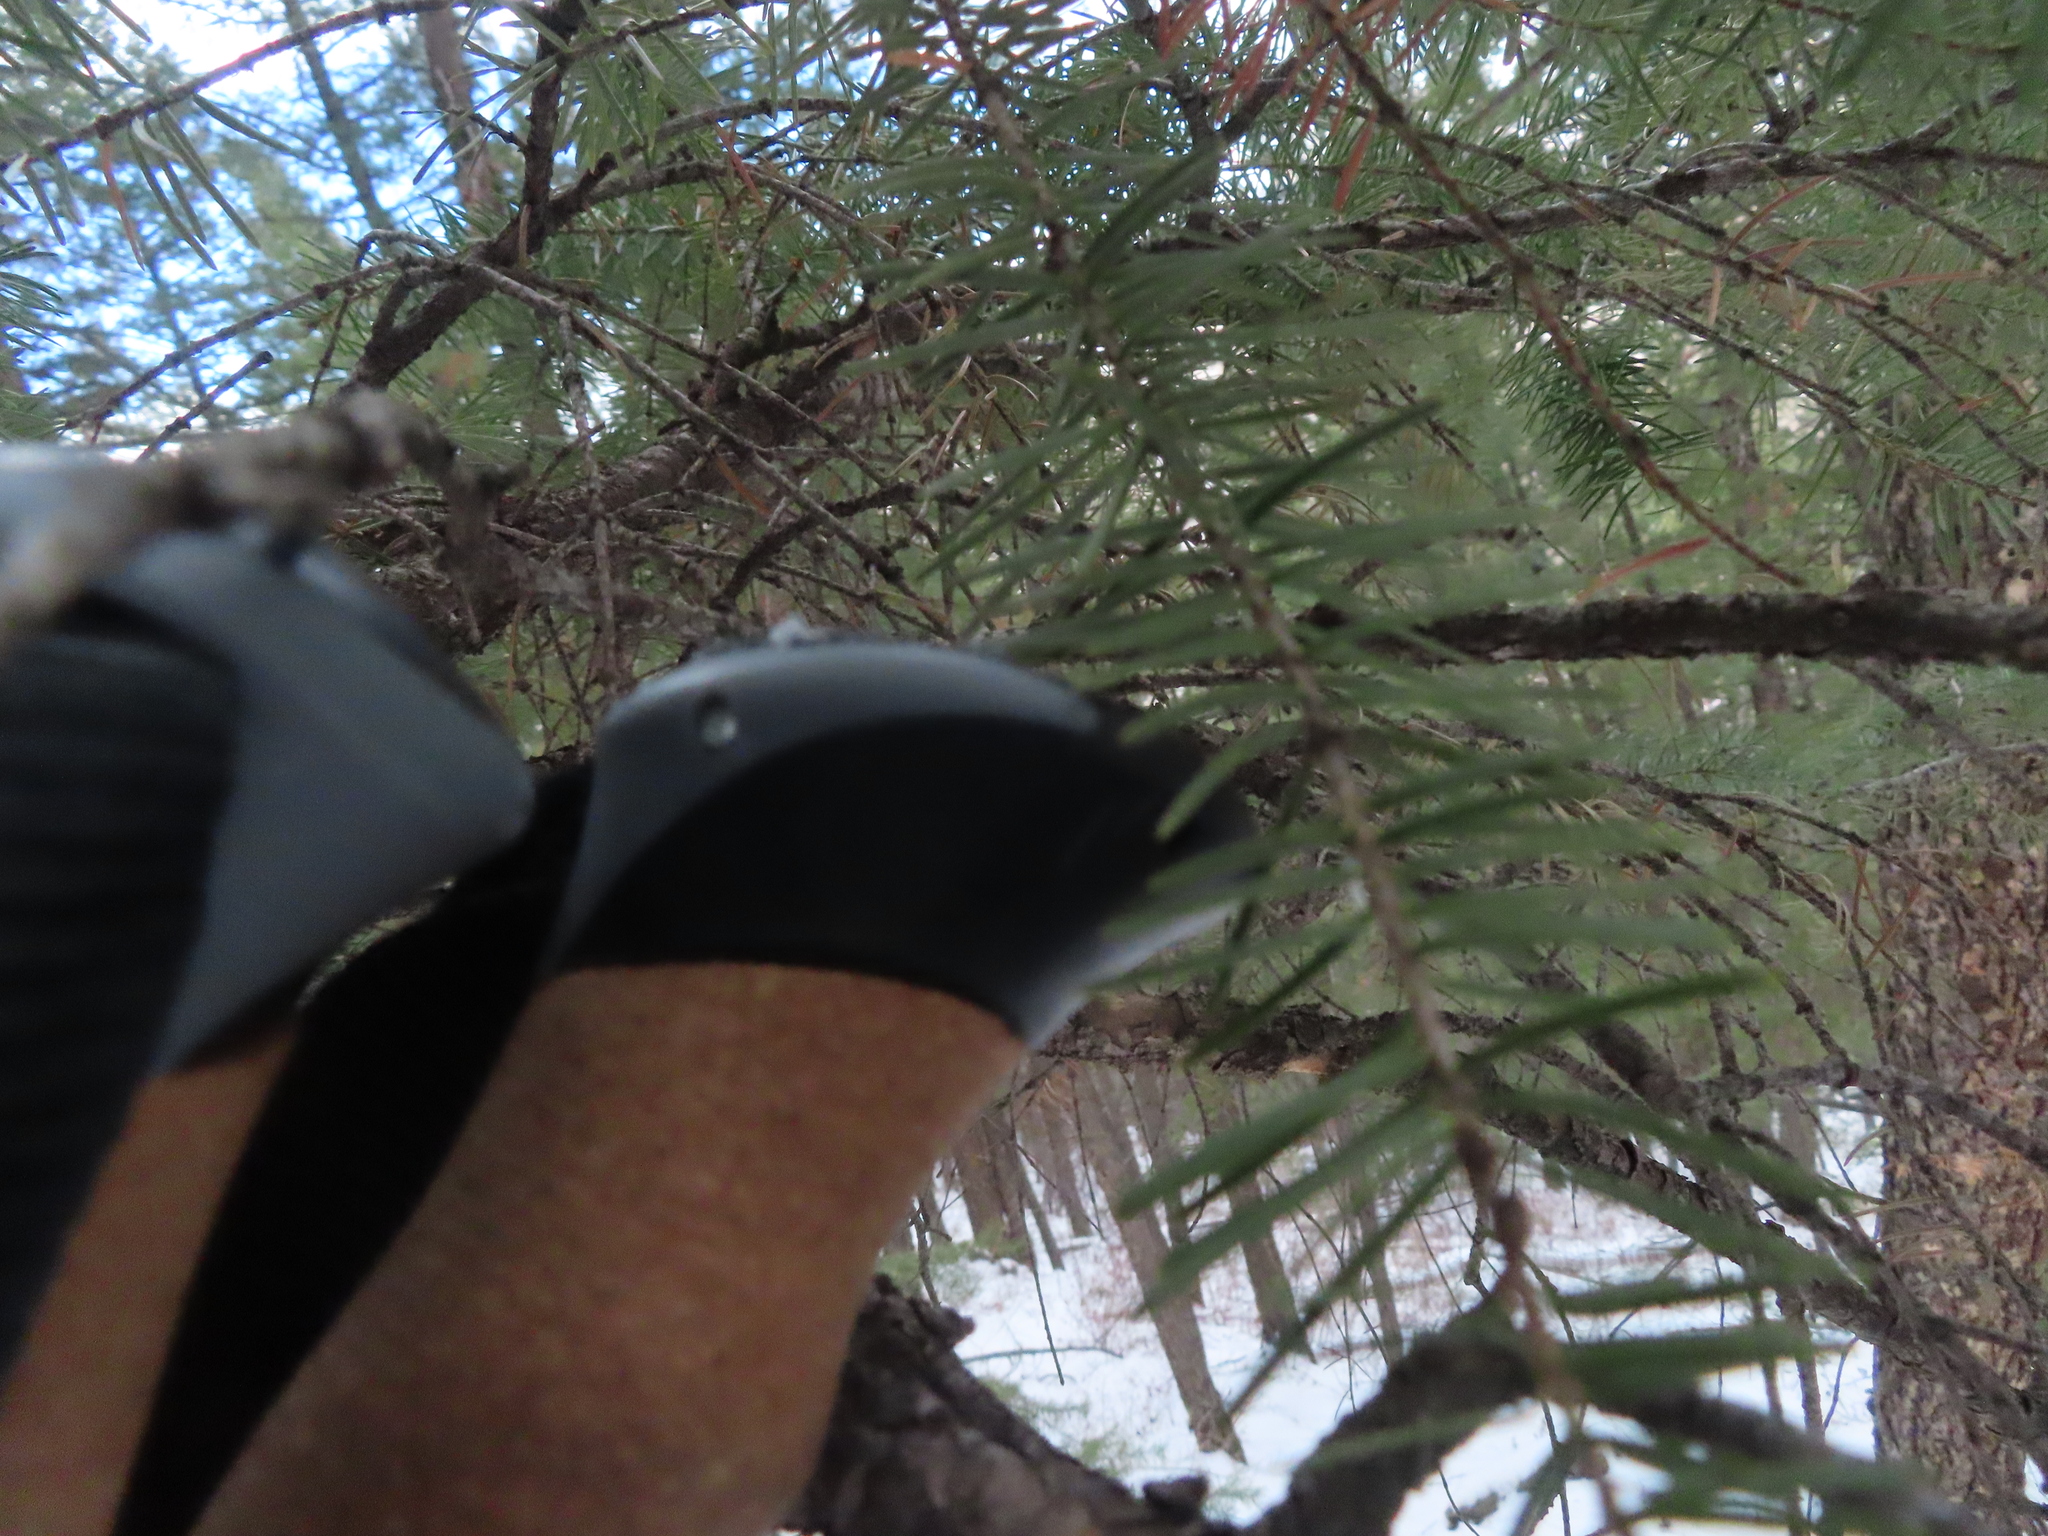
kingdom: Plantae
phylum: Tracheophyta
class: Pinopsida
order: Pinales
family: Pinaceae
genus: Pseudotsuga
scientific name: Pseudotsuga menziesii
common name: Douglas fir
